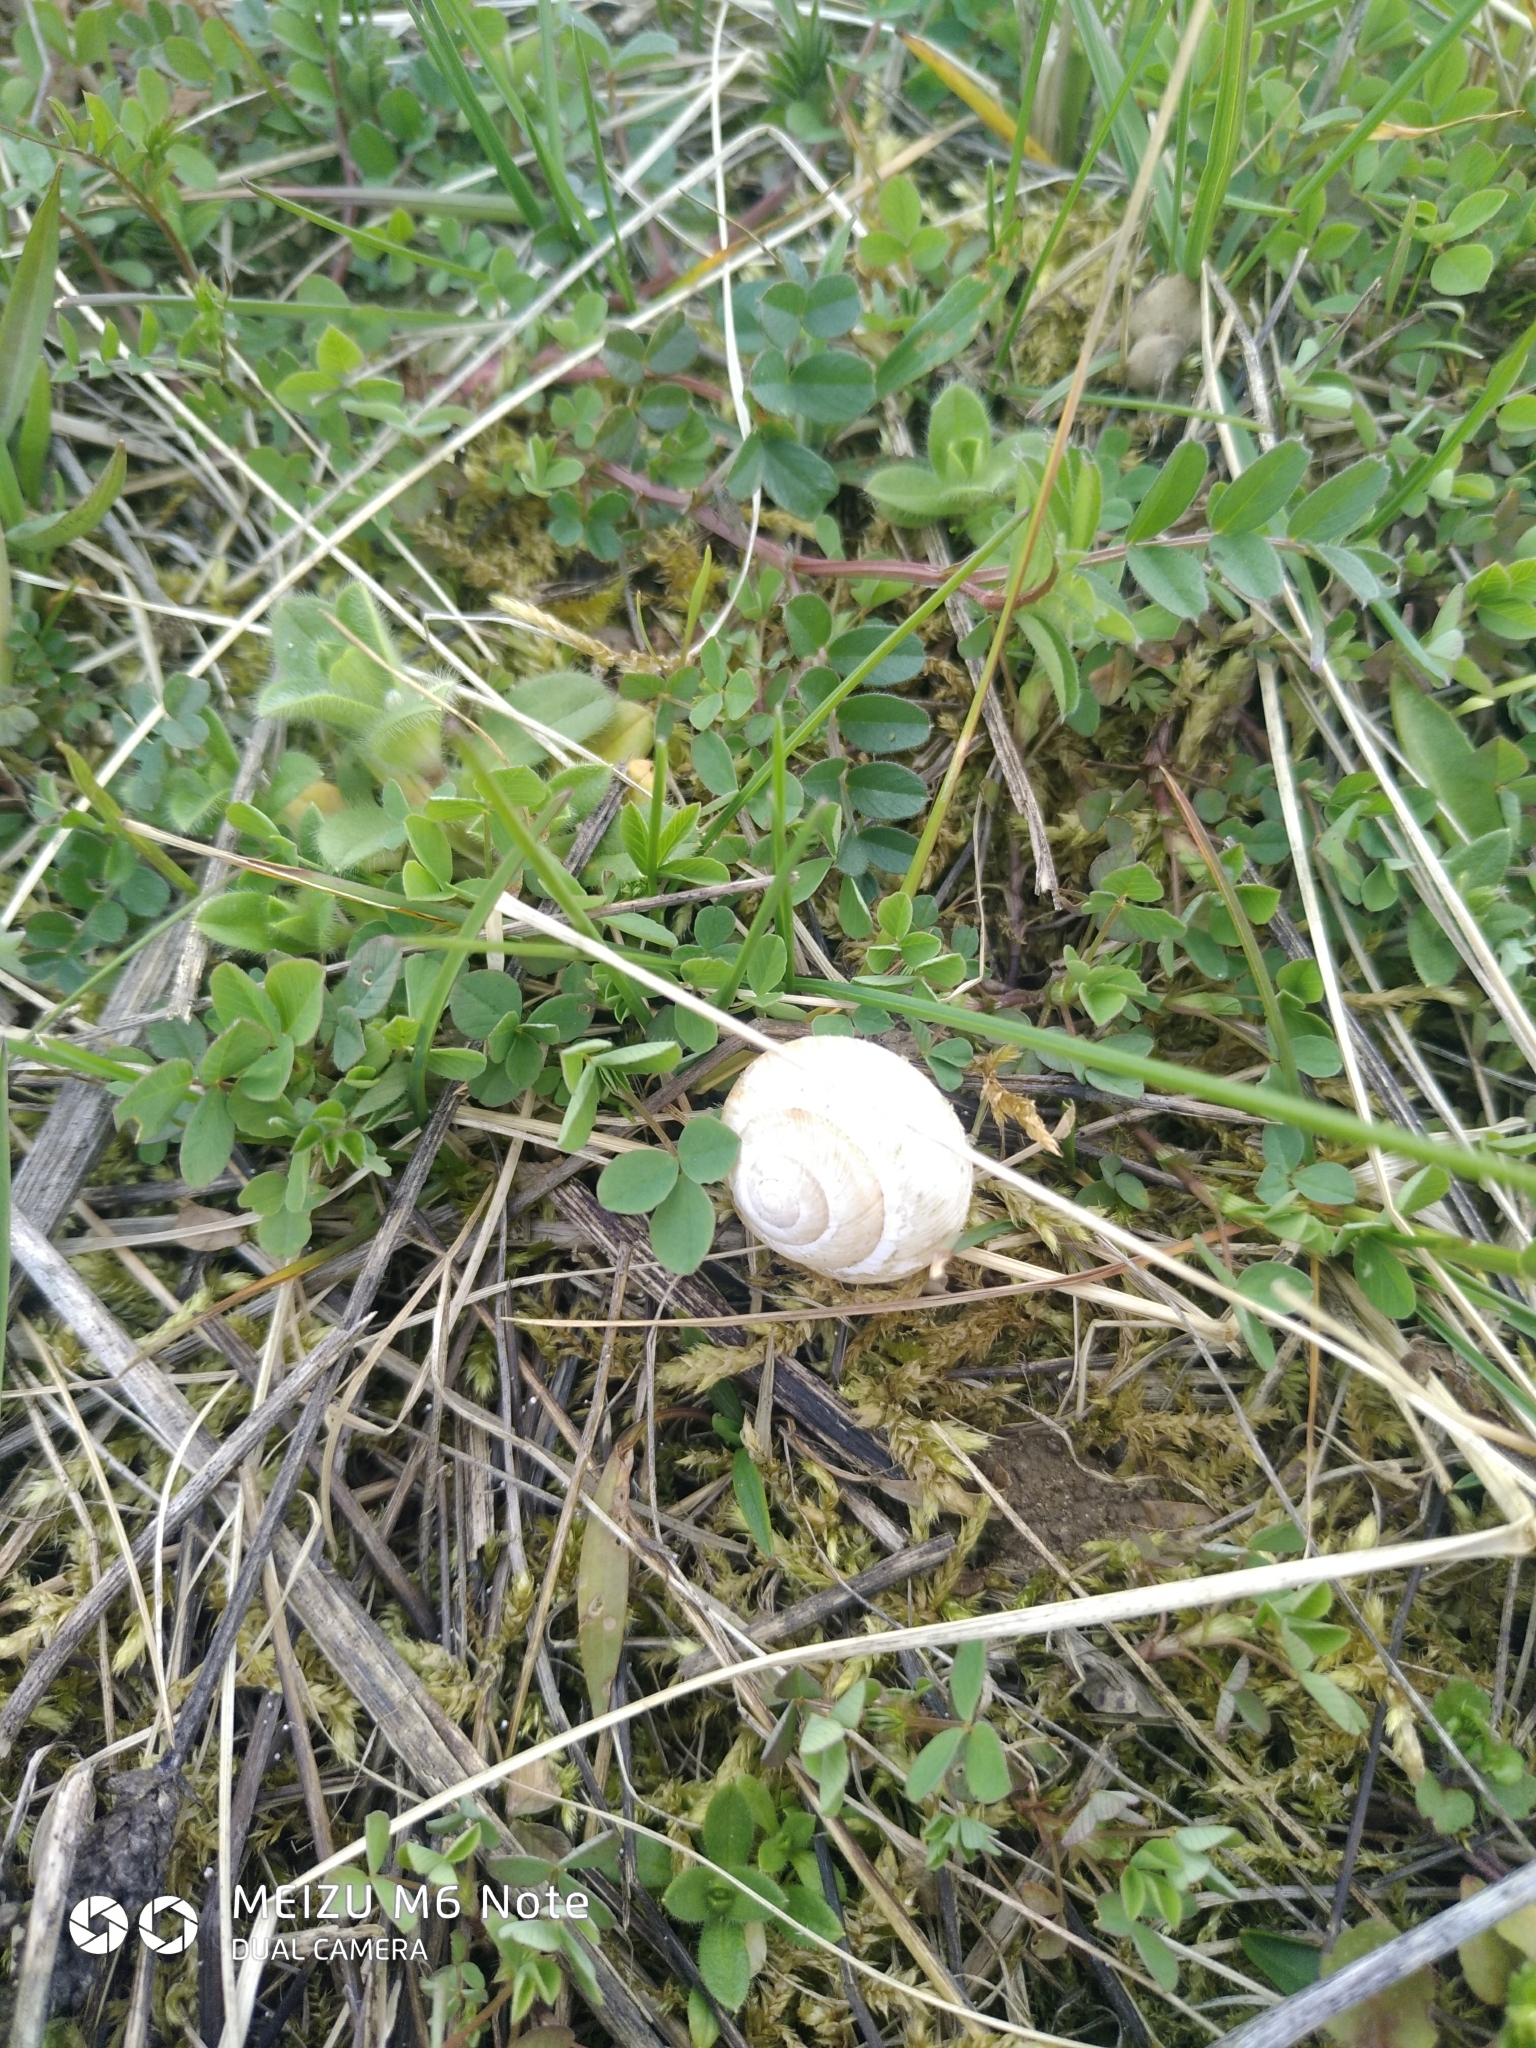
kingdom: Animalia
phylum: Mollusca
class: Gastropoda
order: Stylommatophora
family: Helicidae
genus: Caucasotachea
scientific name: Caucasotachea vindobonensis
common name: European helicid land snail
